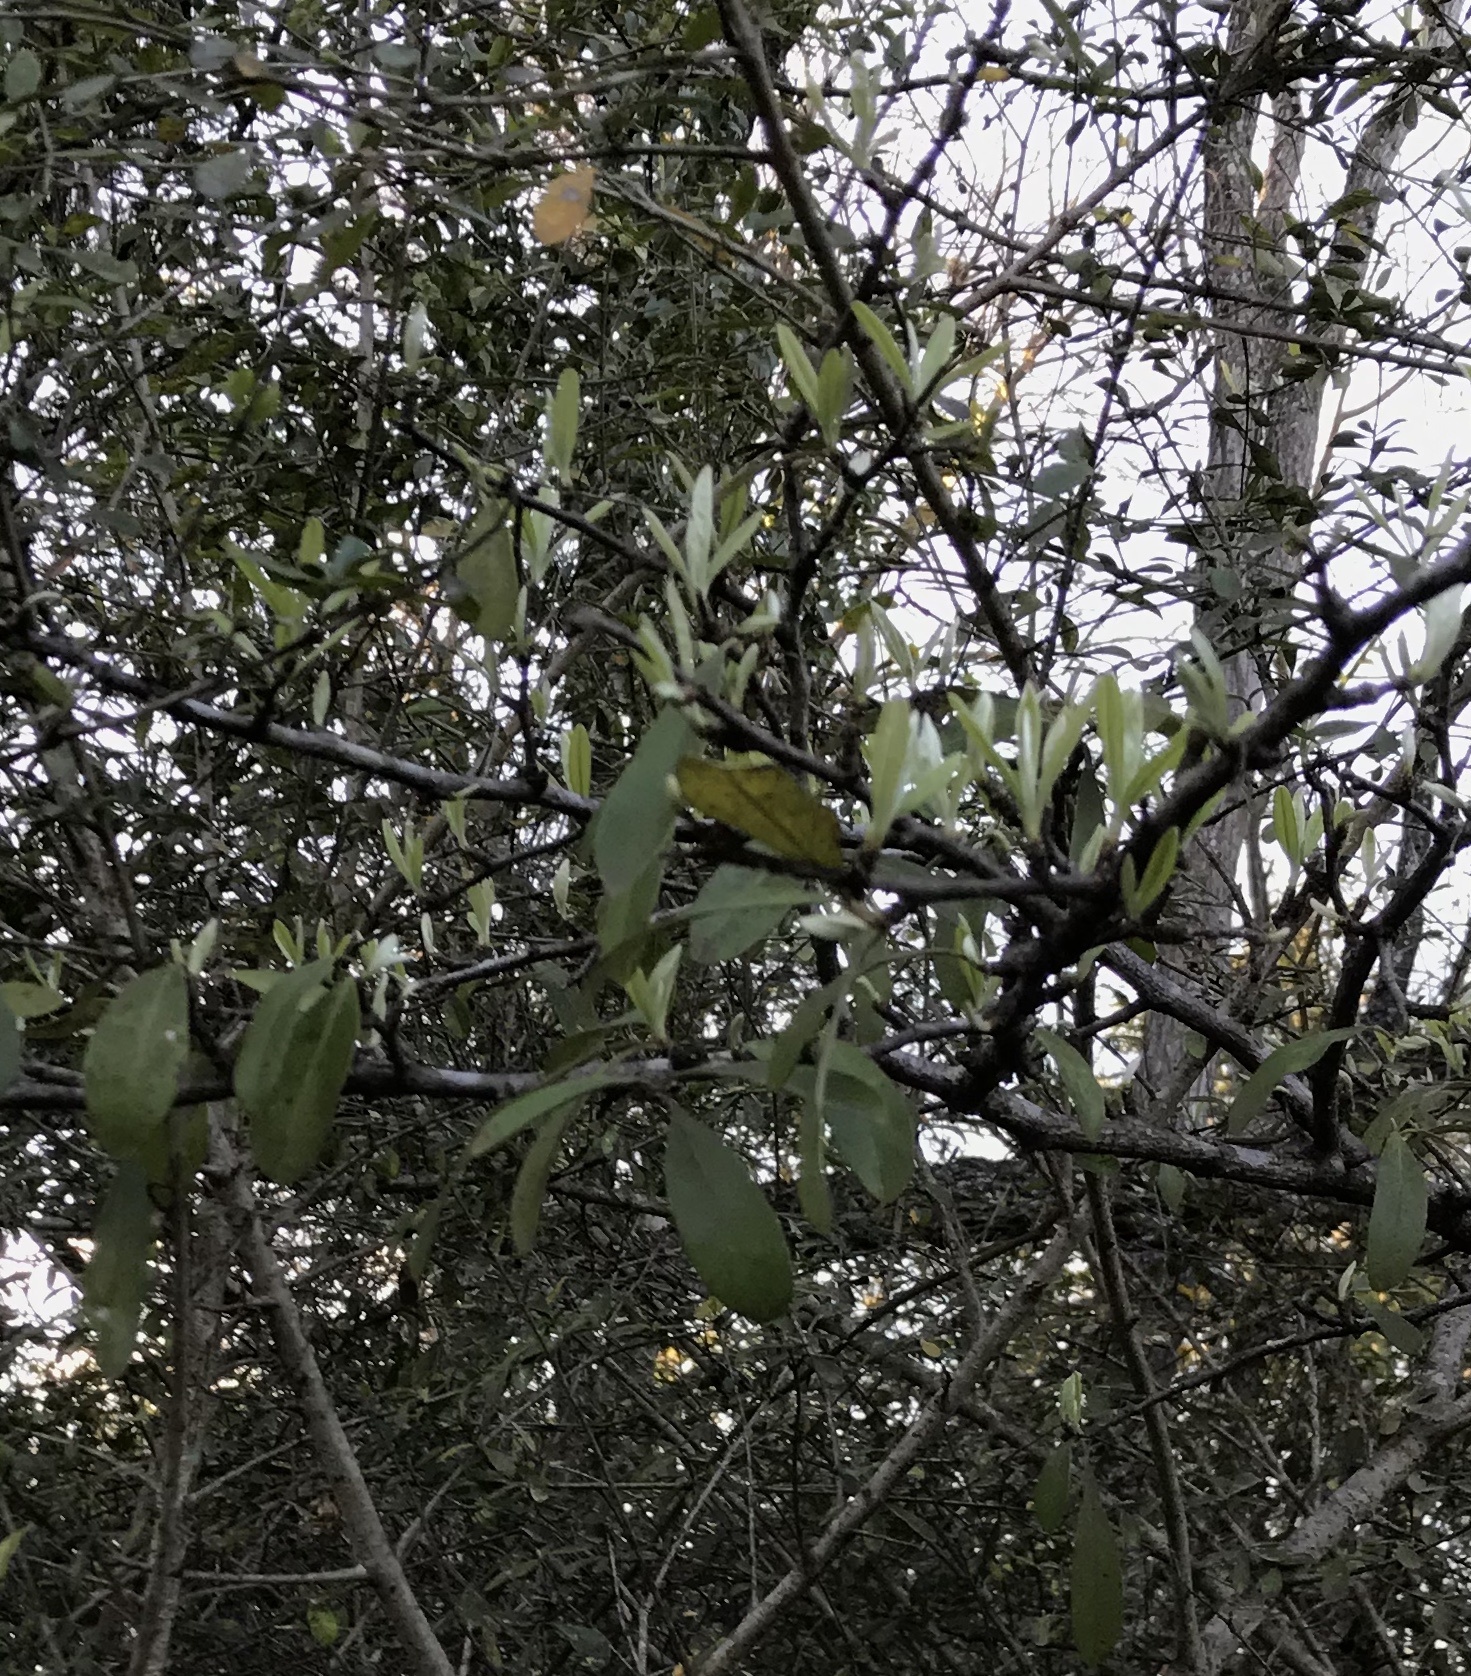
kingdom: Plantae
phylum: Tracheophyta
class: Magnoliopsida
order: Ericales
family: Sapotaceae
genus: Sideroxylon
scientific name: Sideroxylon lanuginosum
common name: Chittamwood
